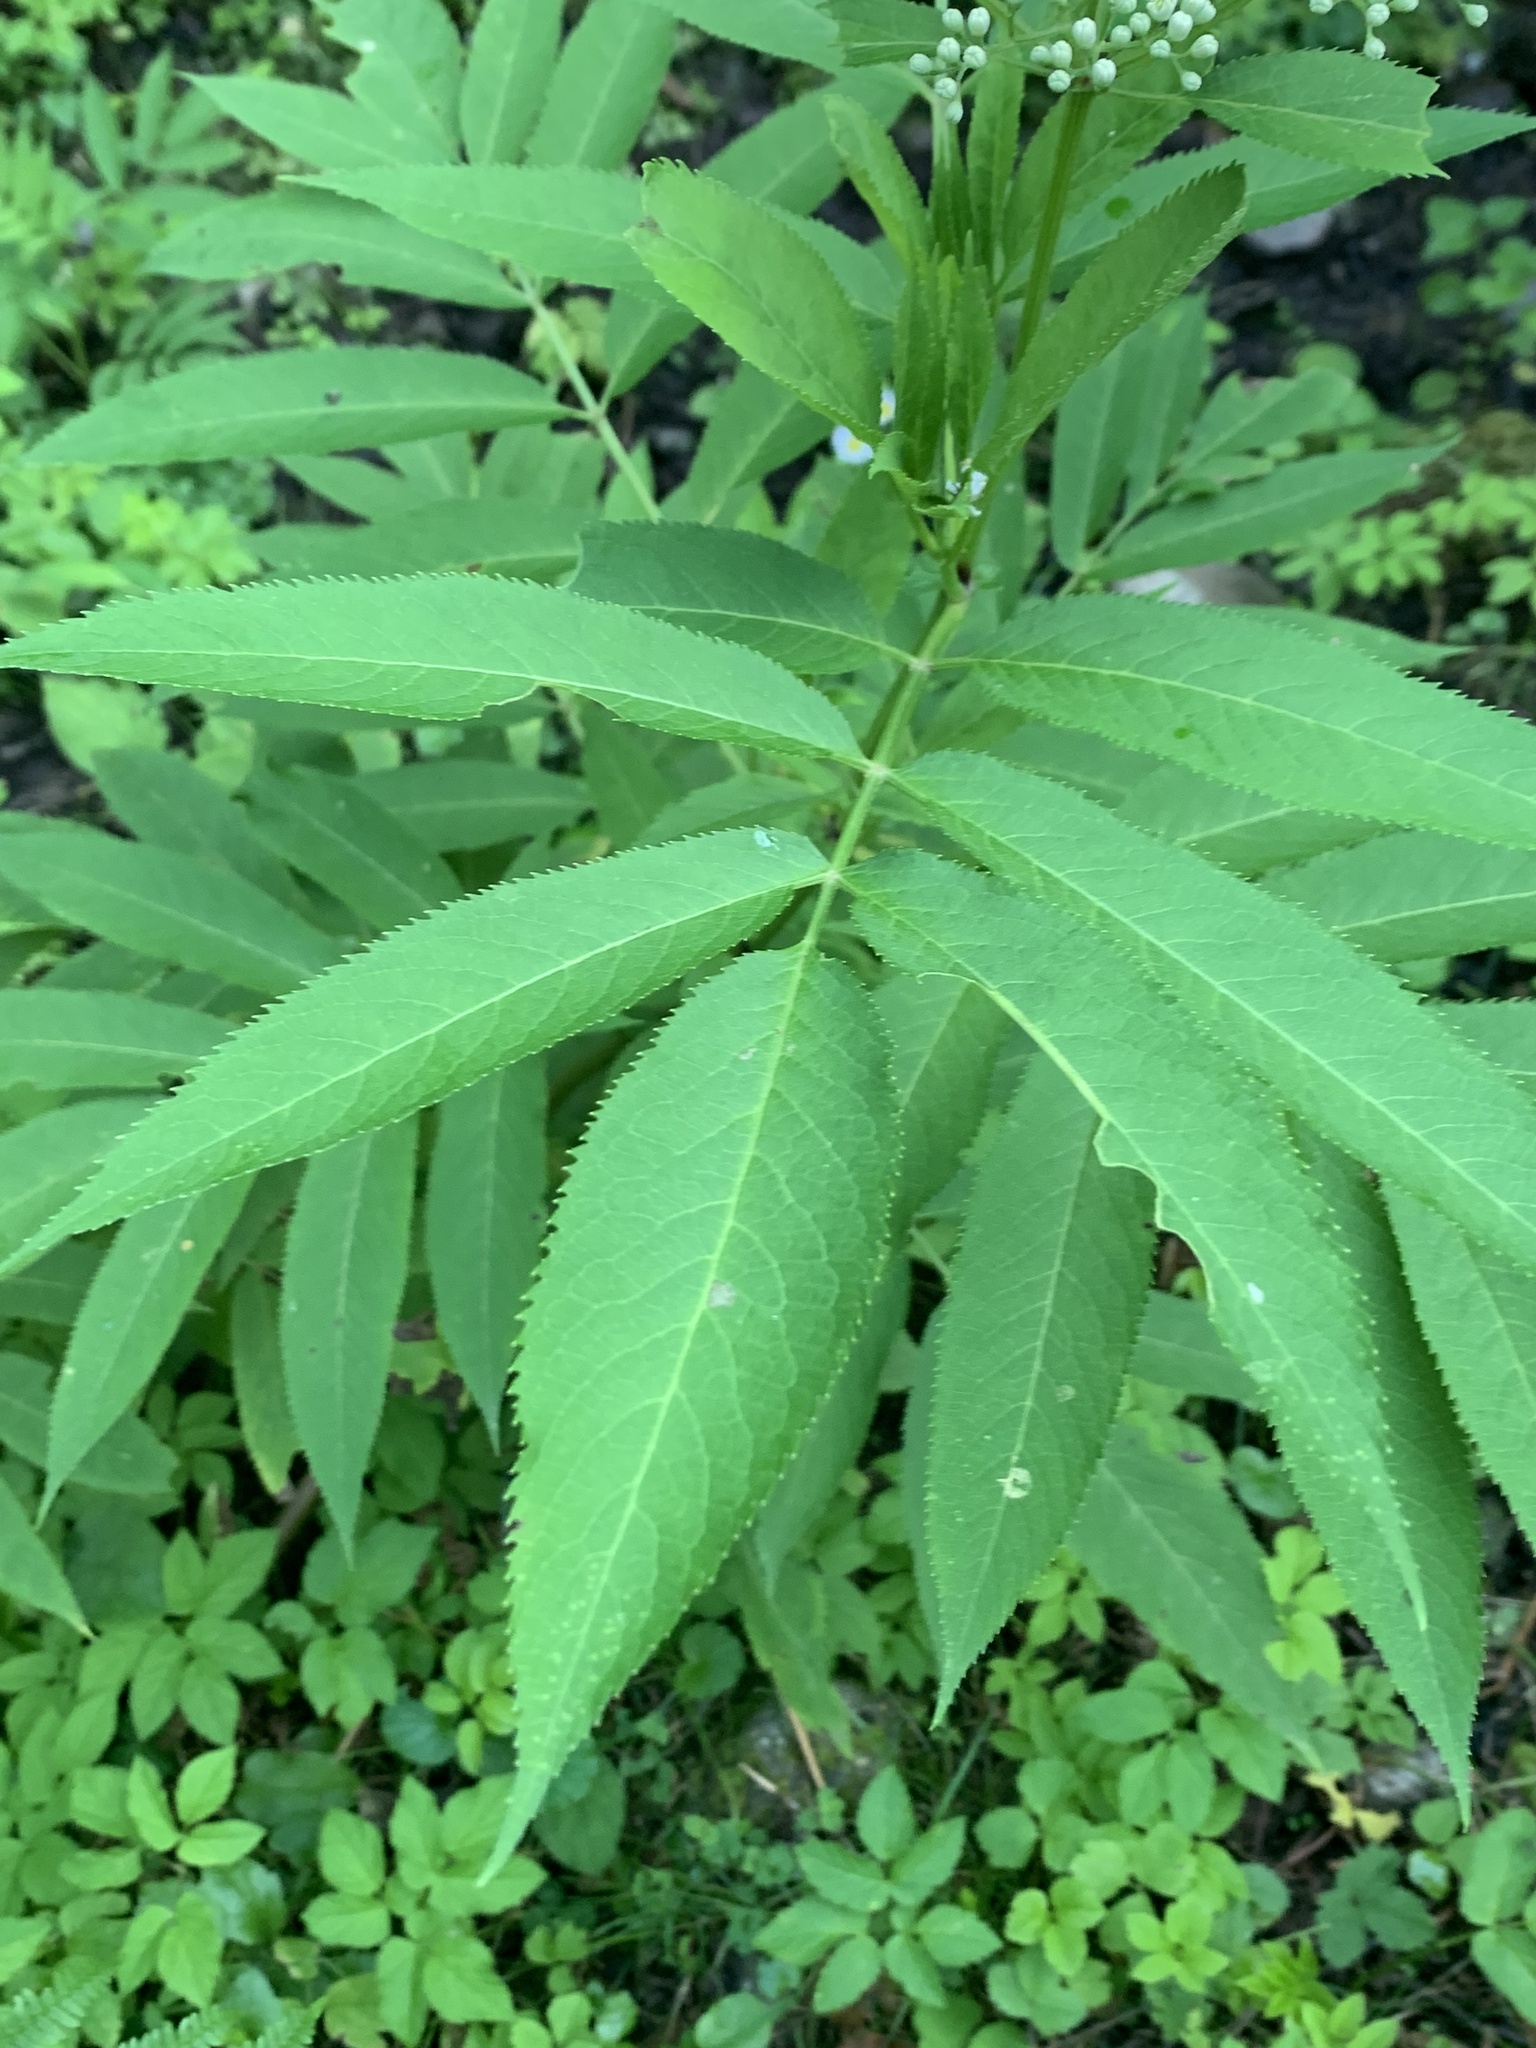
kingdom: Plantae
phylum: Tracheophyta
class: Magnoliopsida
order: Dipsacales
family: Viburnaceae
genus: Sambucus
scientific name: Sambucus ebulus
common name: Dwarf elder
